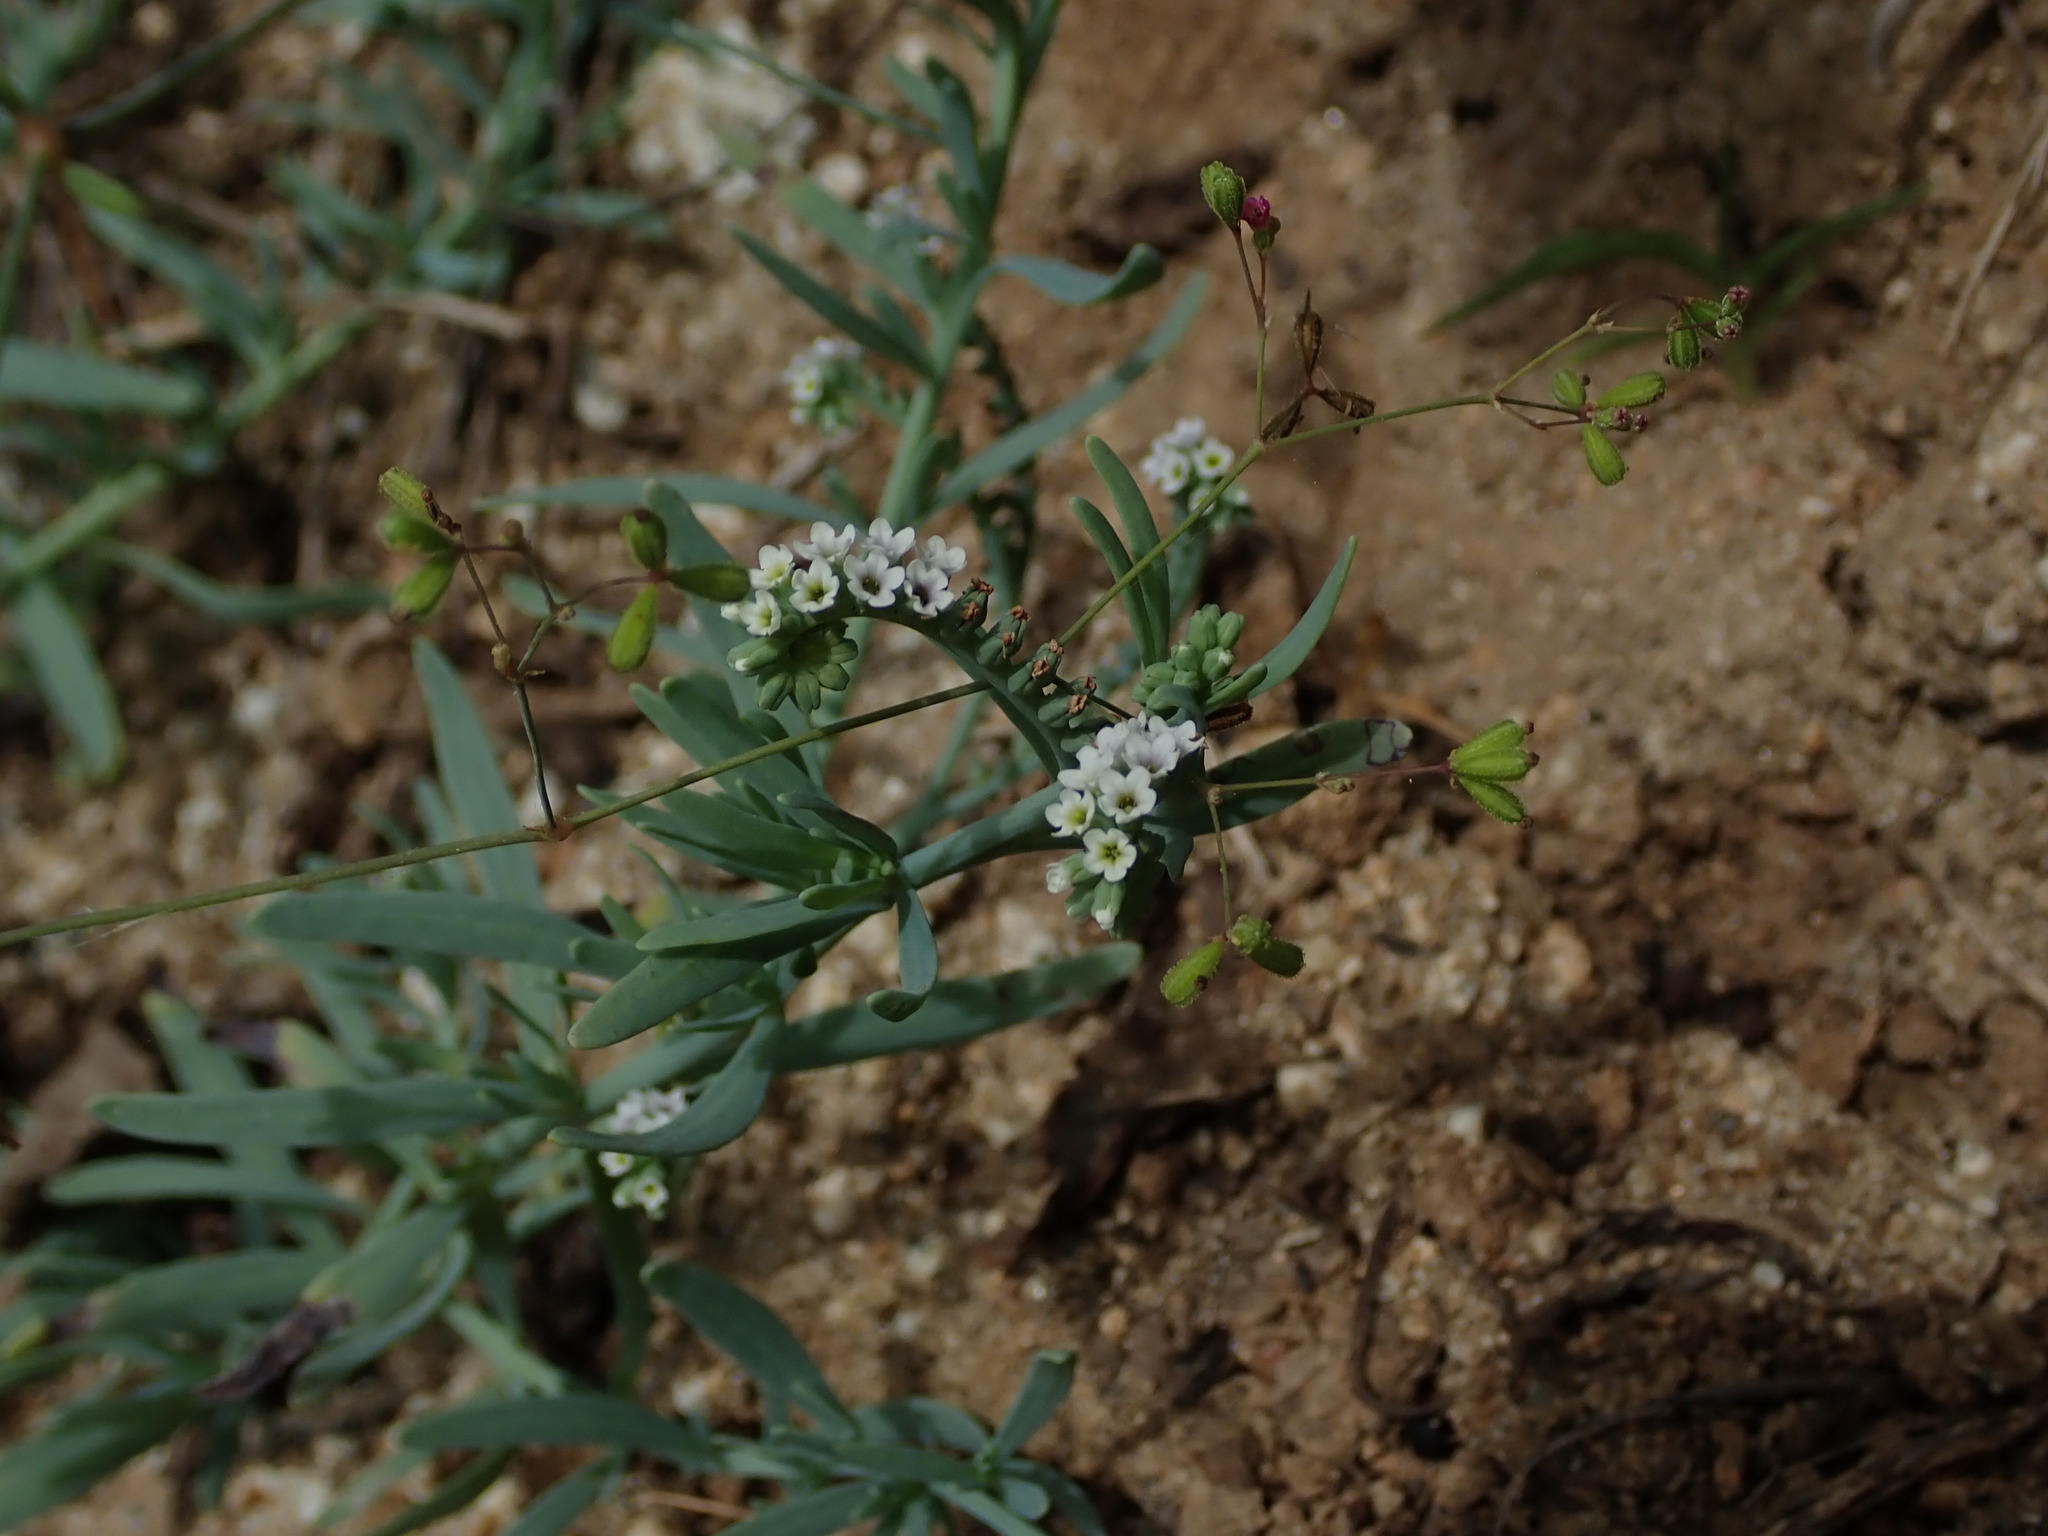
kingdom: Plantae
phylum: Tracheophyta
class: Magnoliopsida
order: Boraginales
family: Heliotropiaceae
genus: Heliotropium
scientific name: Heliotropium curassavicum
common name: Seaside heliotrope
